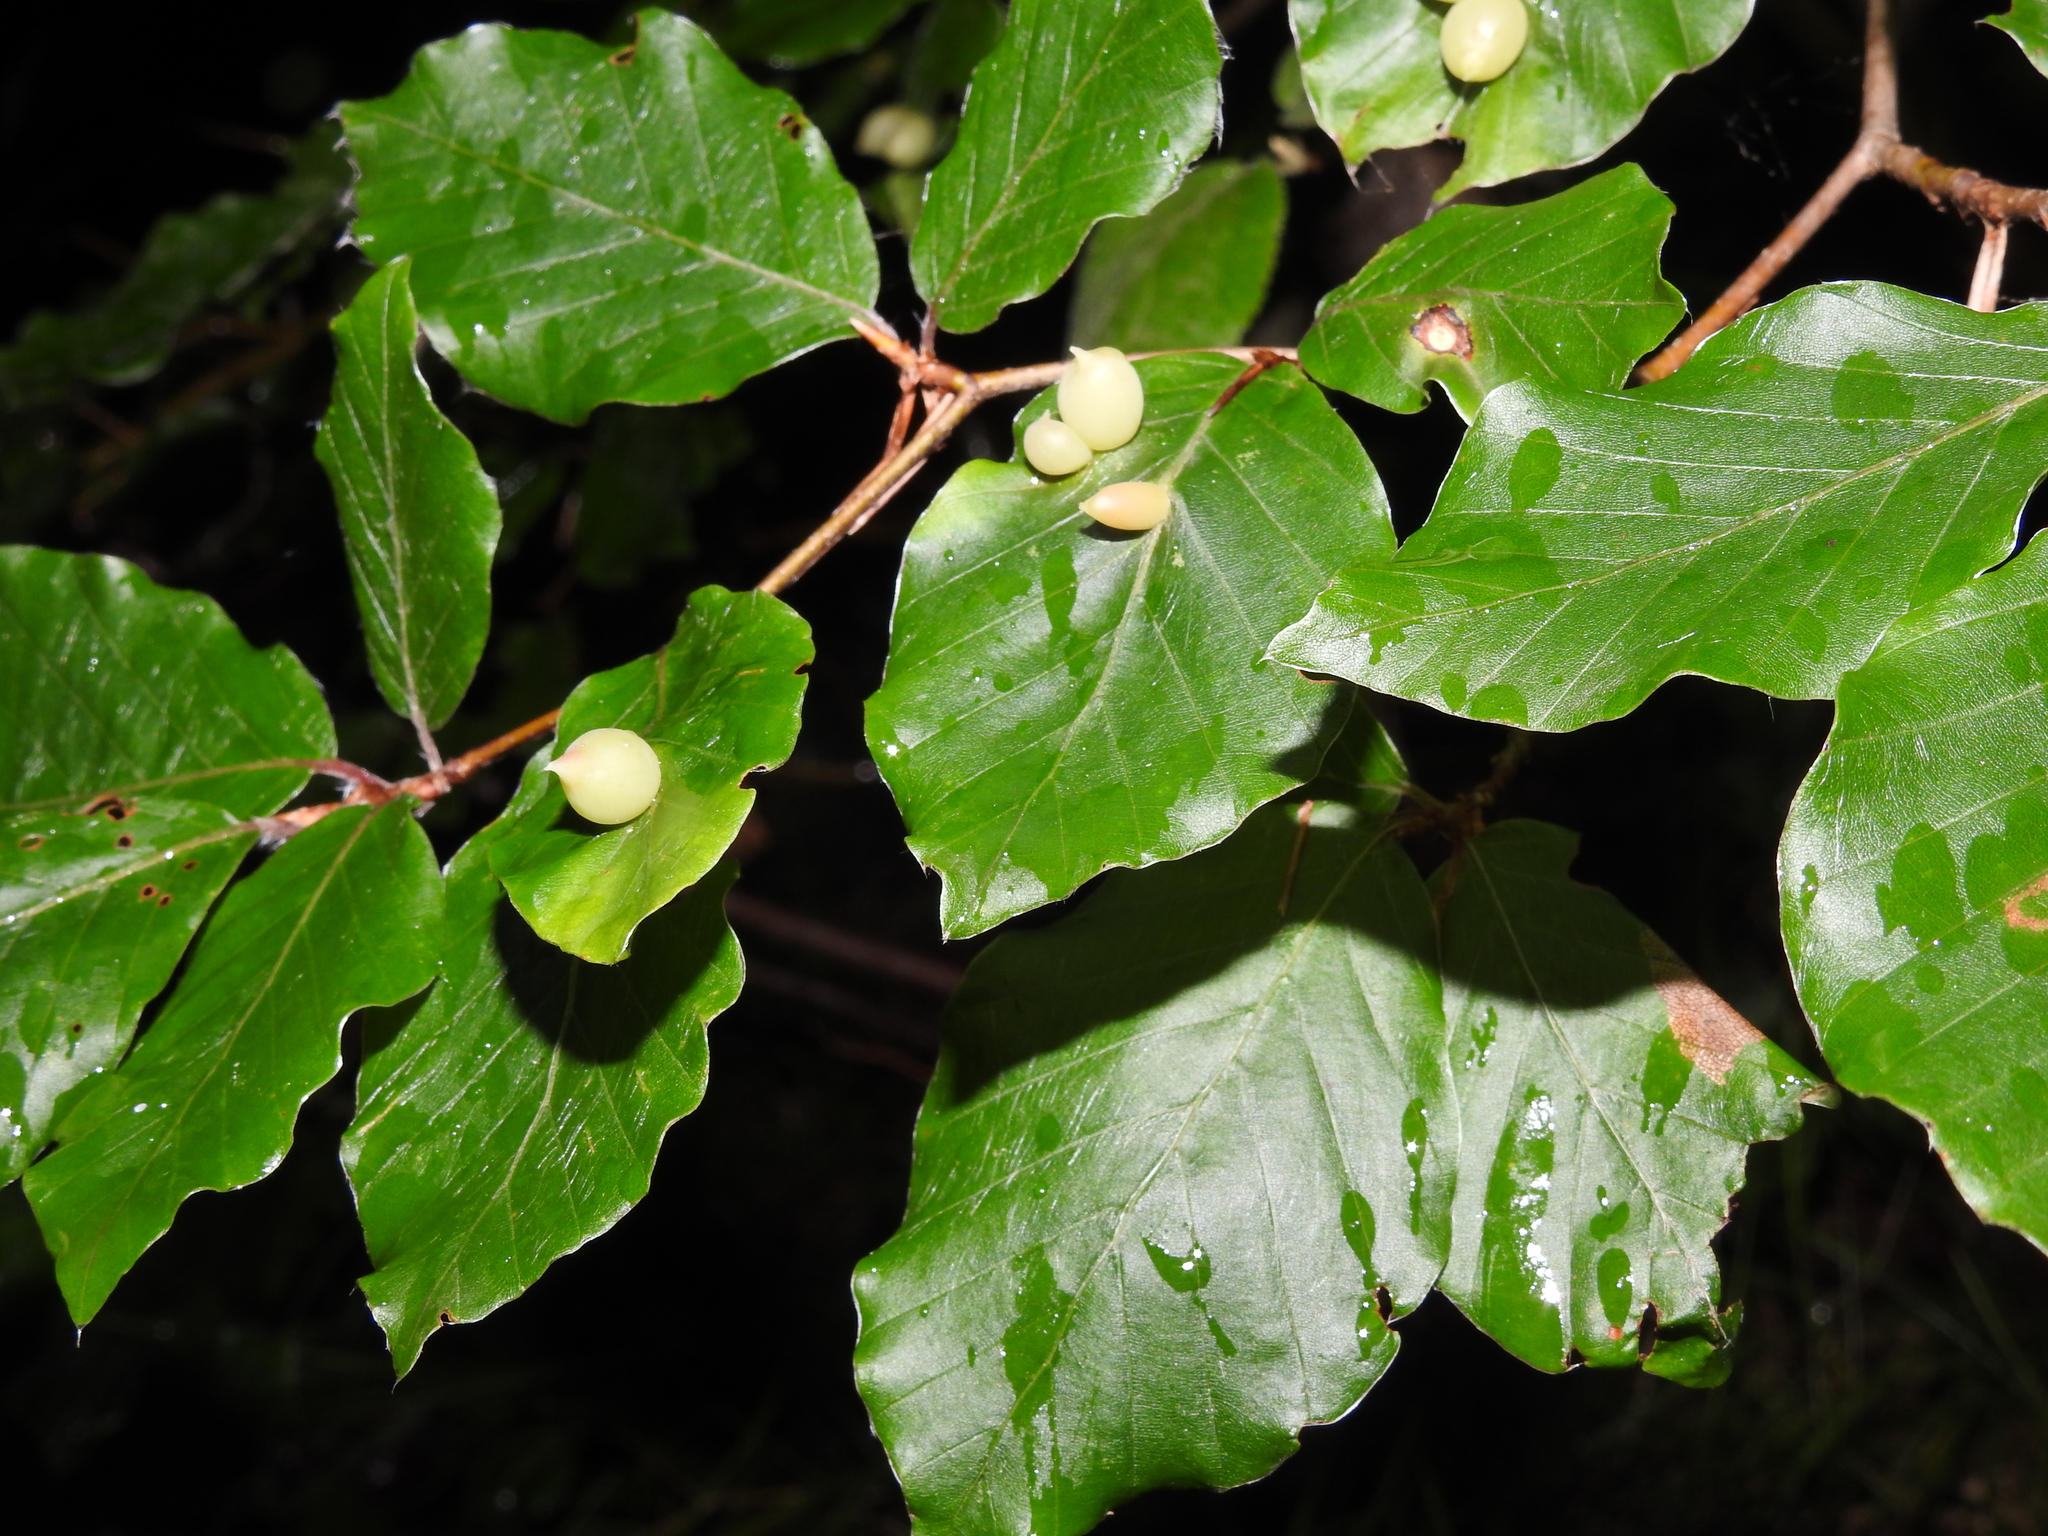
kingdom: Animalia
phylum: Arthropoda
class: Insecta
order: Diptera
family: Cecidomyiidae
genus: Mikiola
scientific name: Mikiola fagi
